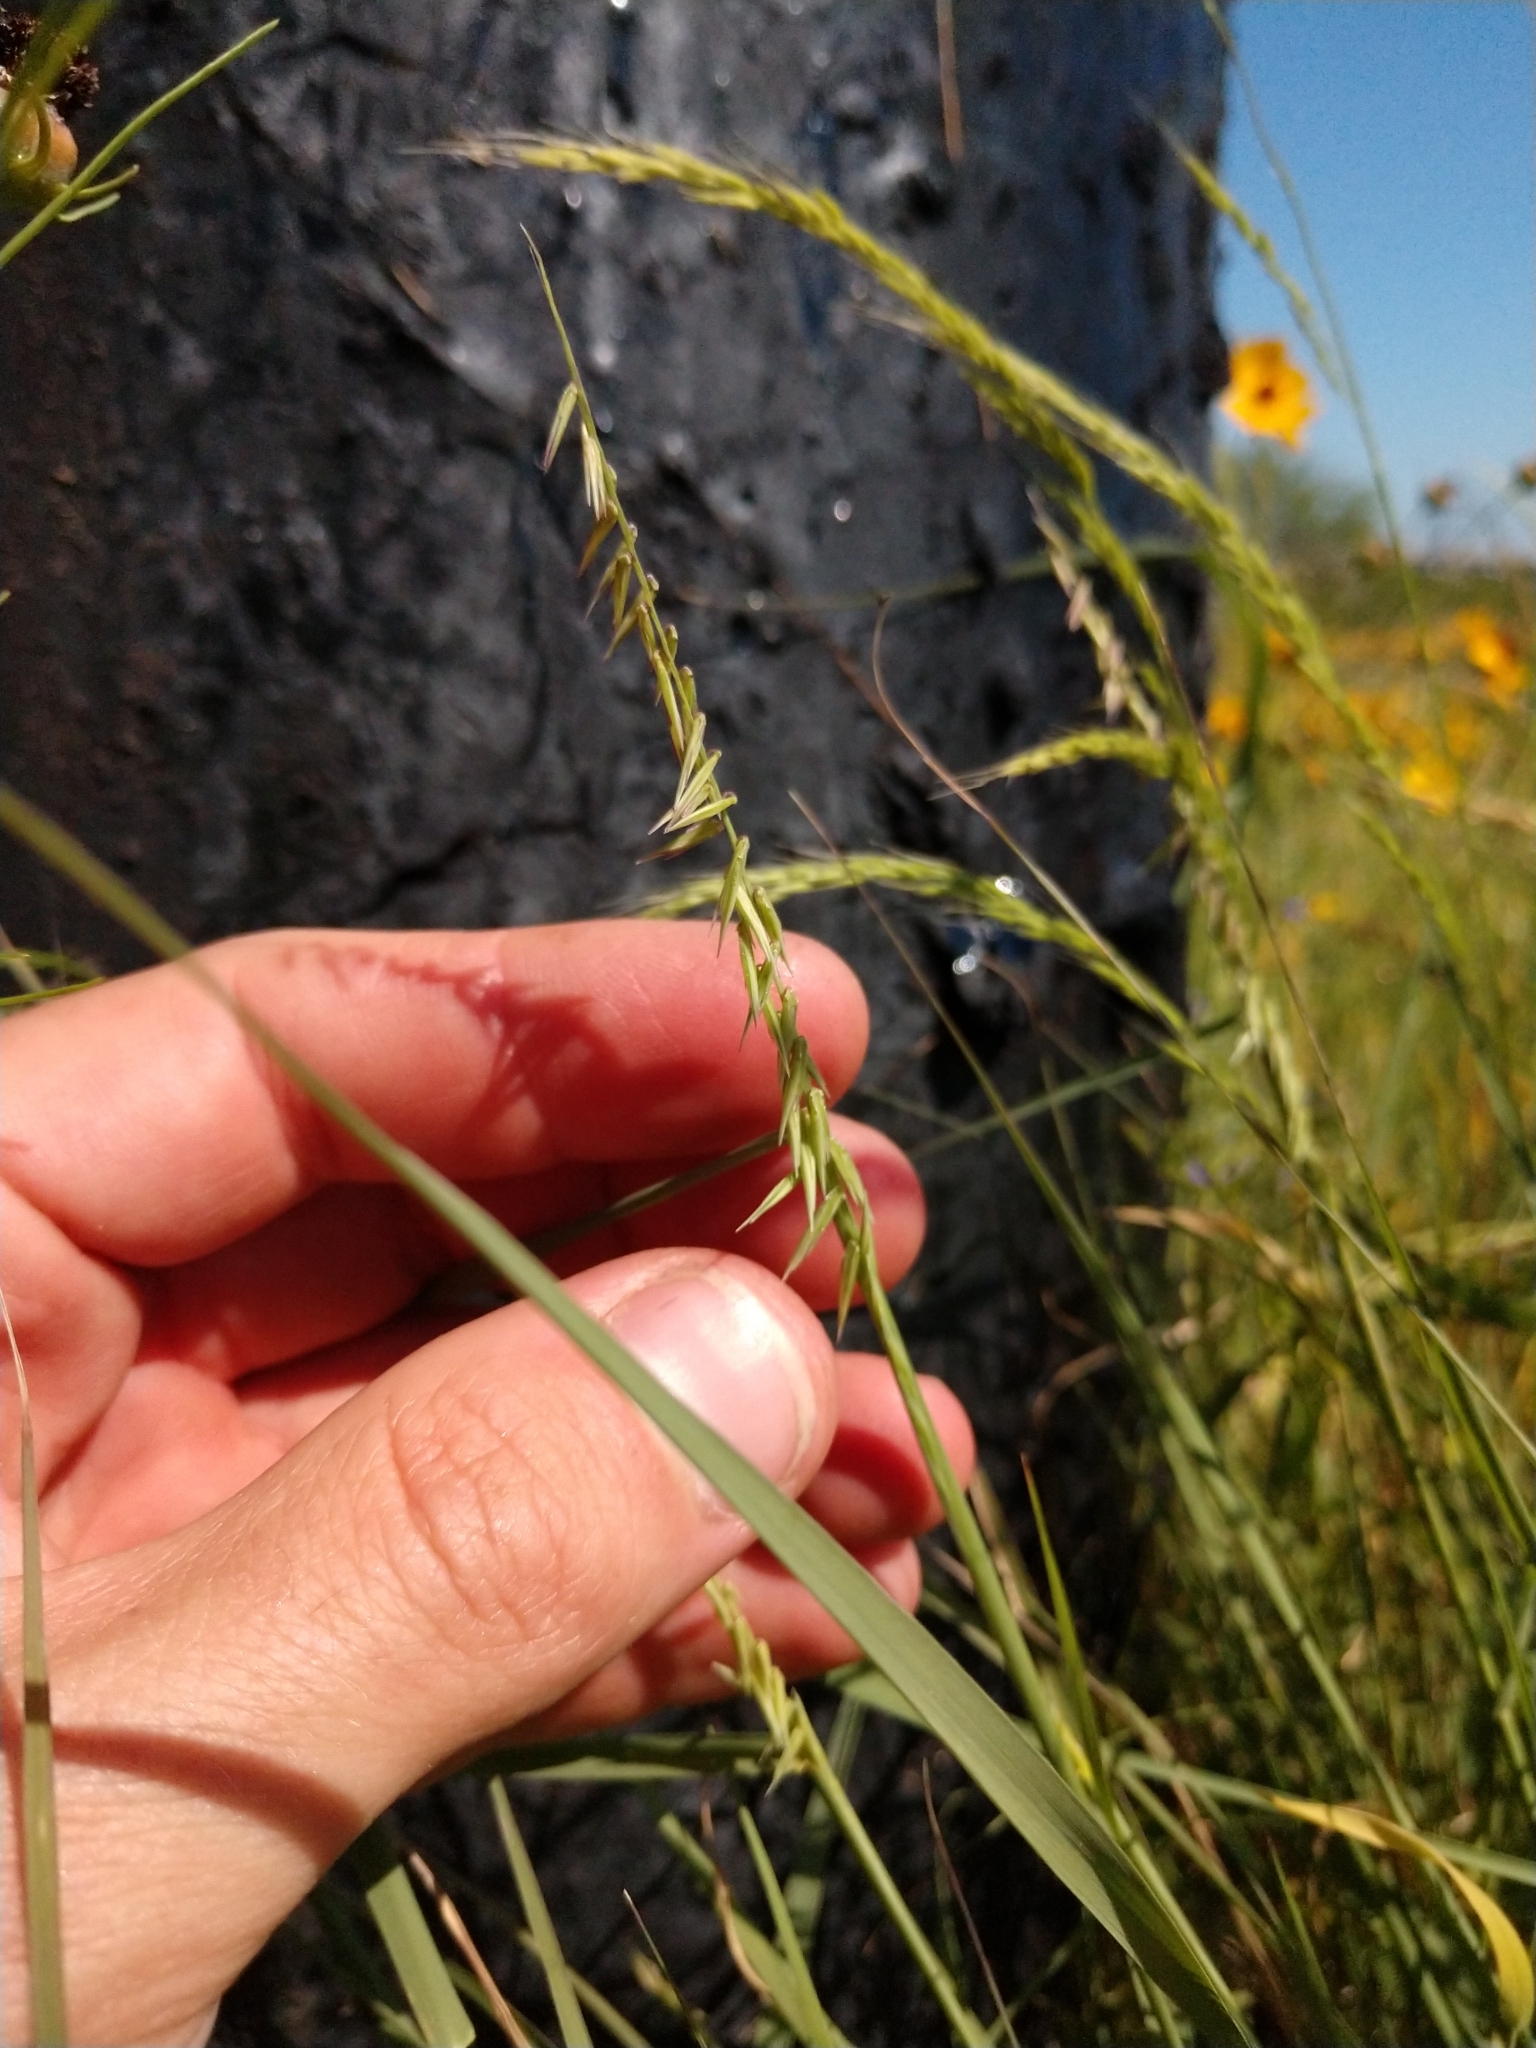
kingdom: Plantae
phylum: Tracheophyta
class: Liliopsida
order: Poales
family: Poaceae
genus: Bouteloua
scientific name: Bouteloua curtipendula
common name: Side-oats grama
